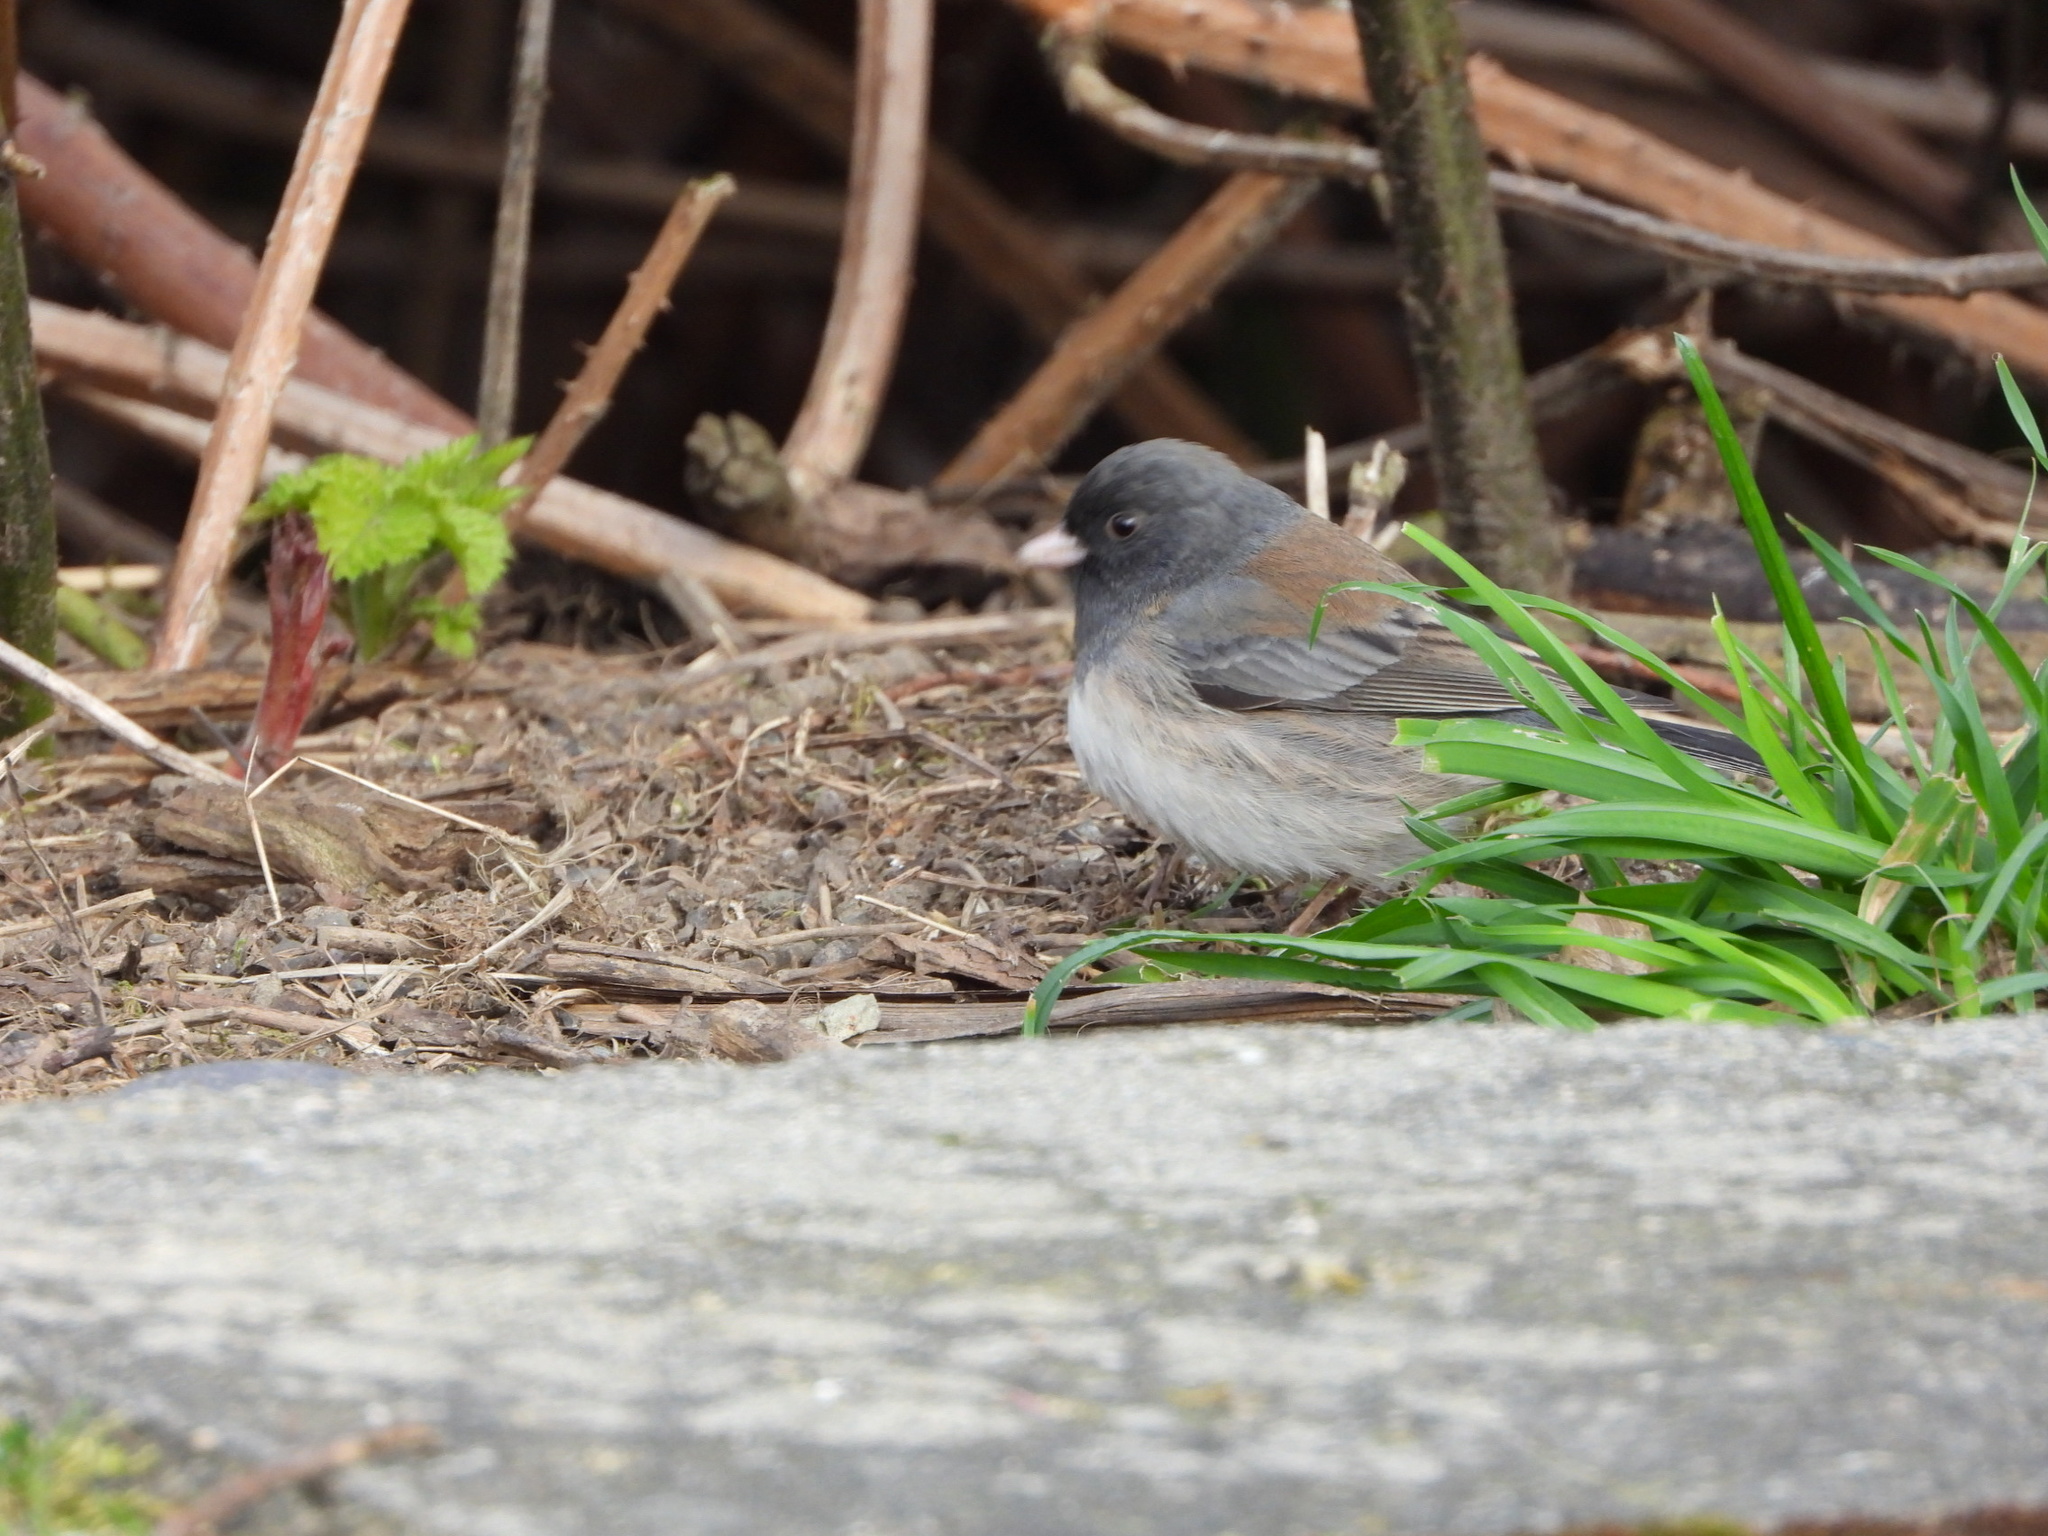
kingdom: Animalia
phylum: Chordata
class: Aves
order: Passeriformes
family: Passerellidae
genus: Junco
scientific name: Junco hyemalis
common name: Dark-eyed junco
